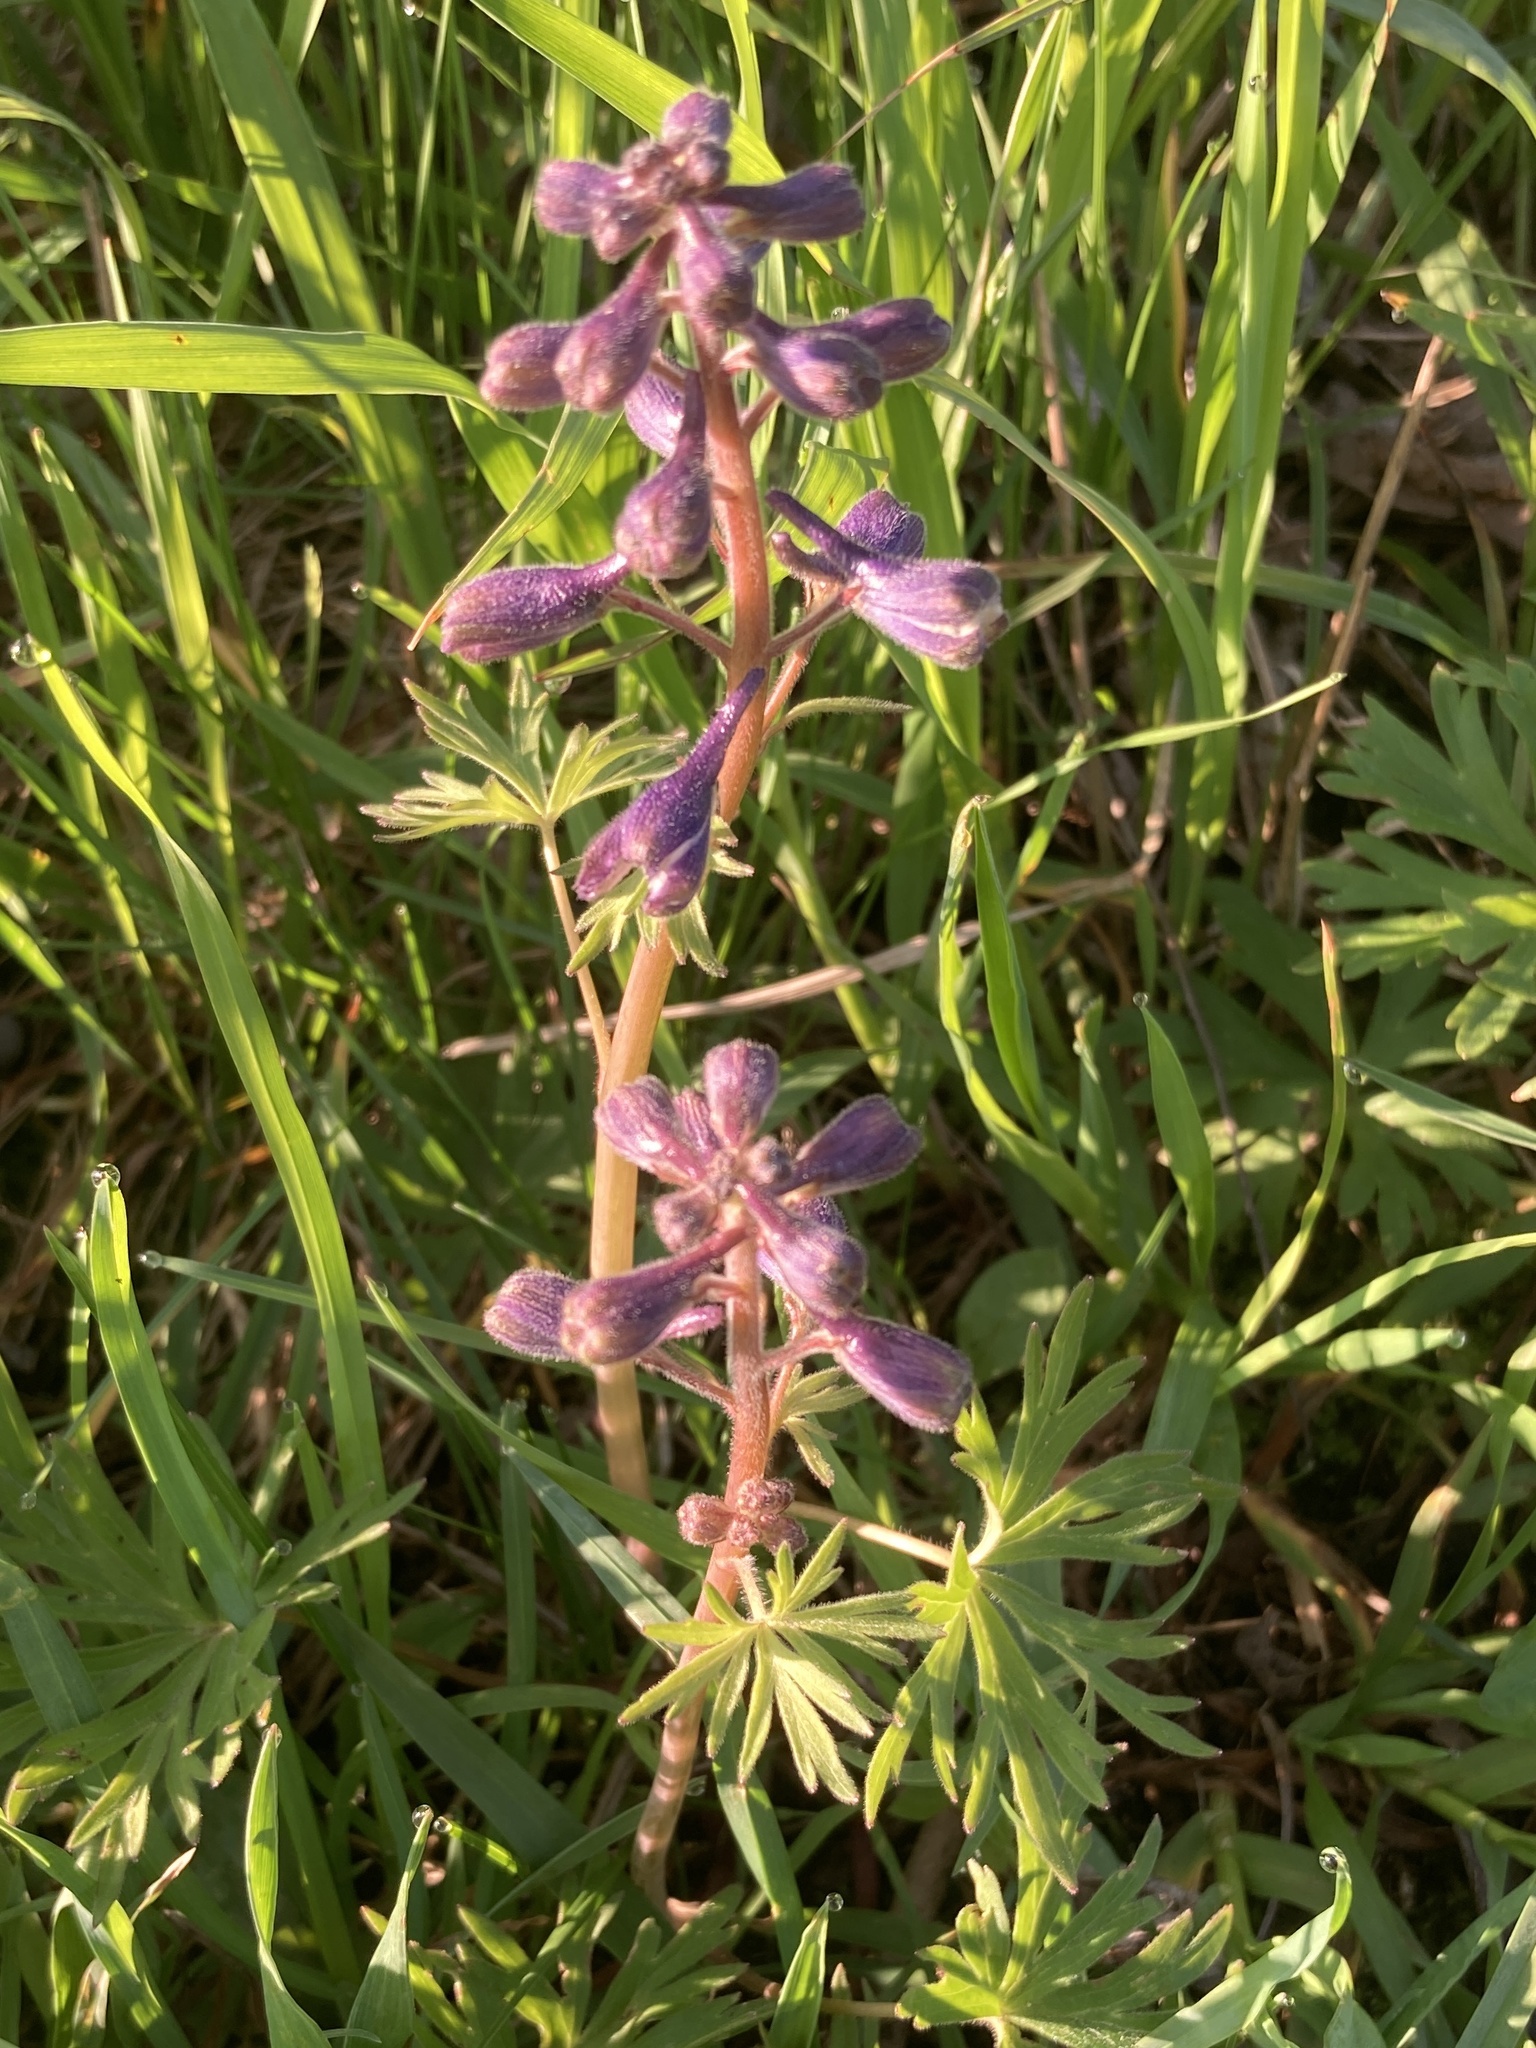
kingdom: Plantae
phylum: Tracheophyta
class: Magnoliopsida
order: Ranunculales
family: Ranunculaceae
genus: Delphinium
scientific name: Delphinium tricorne
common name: Dwarf larkspur
